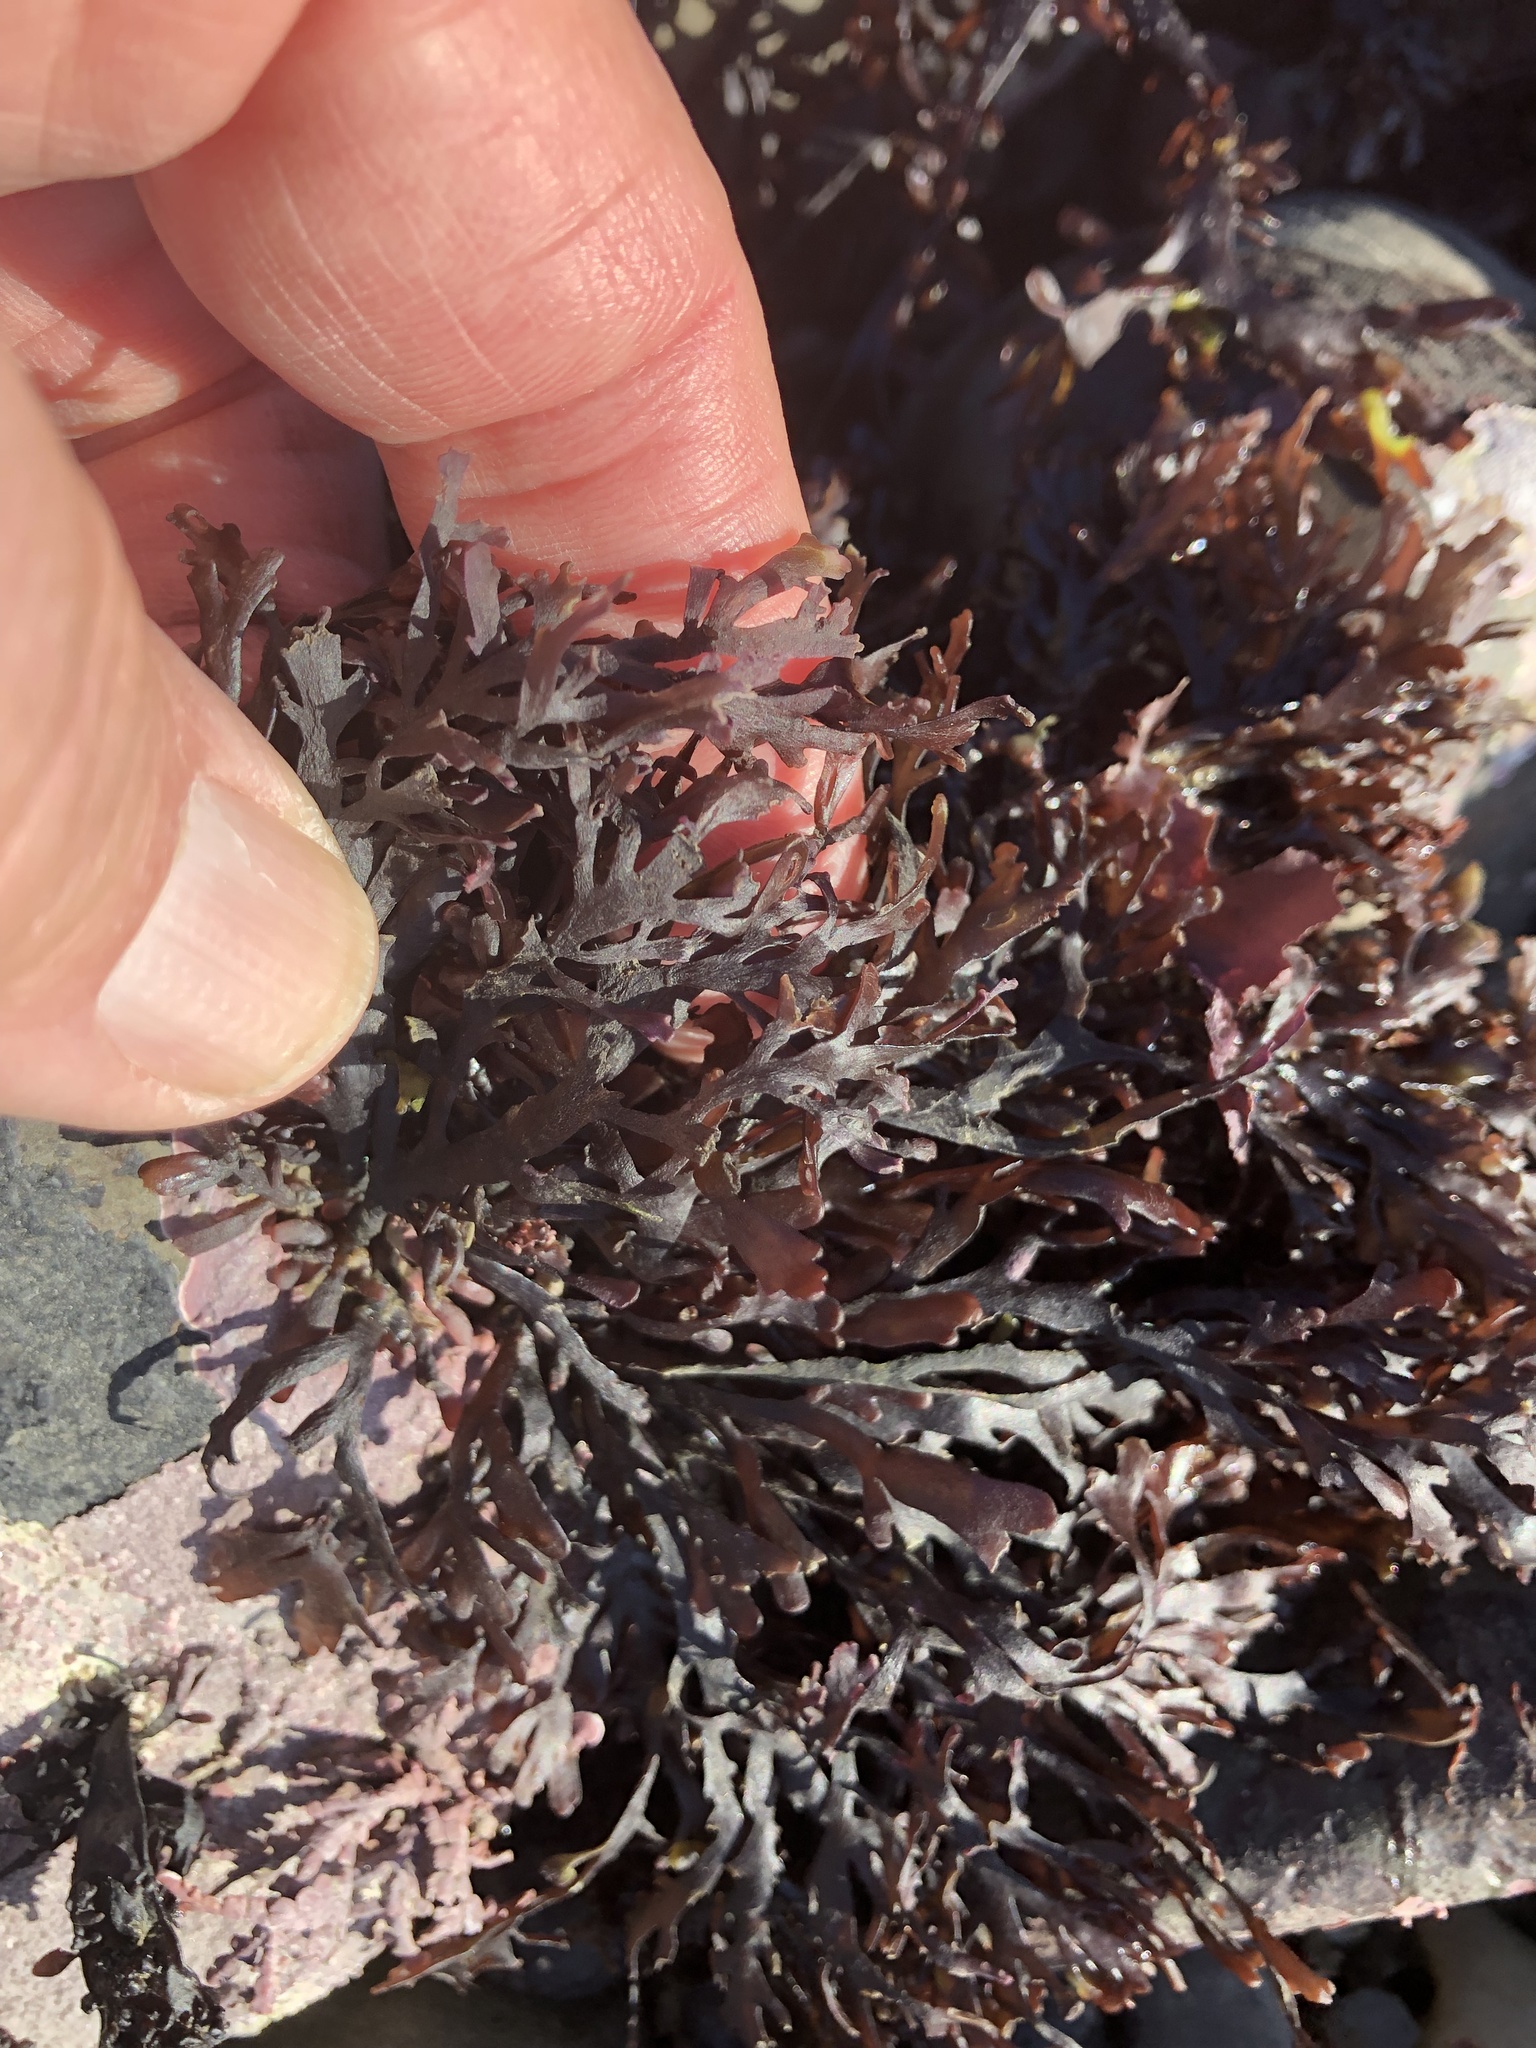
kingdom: Plantae
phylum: Rhodophyta
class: Florideophyceae
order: Ceramiales
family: Rhodomelaceae
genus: Osmundea
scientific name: Osmundea spectabilis
